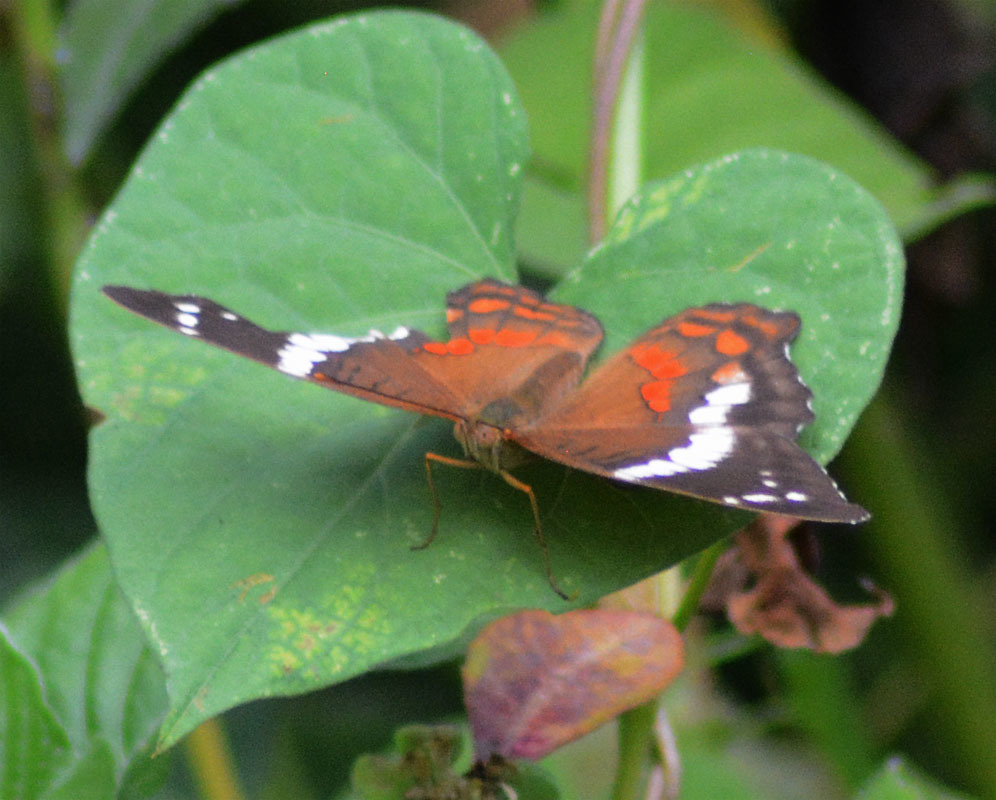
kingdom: Animalia
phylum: Arthropoda
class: Insecta
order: Lepidoptera
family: Nymphalidae
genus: Anartia
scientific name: Anartia fatima
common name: Banded peacock
